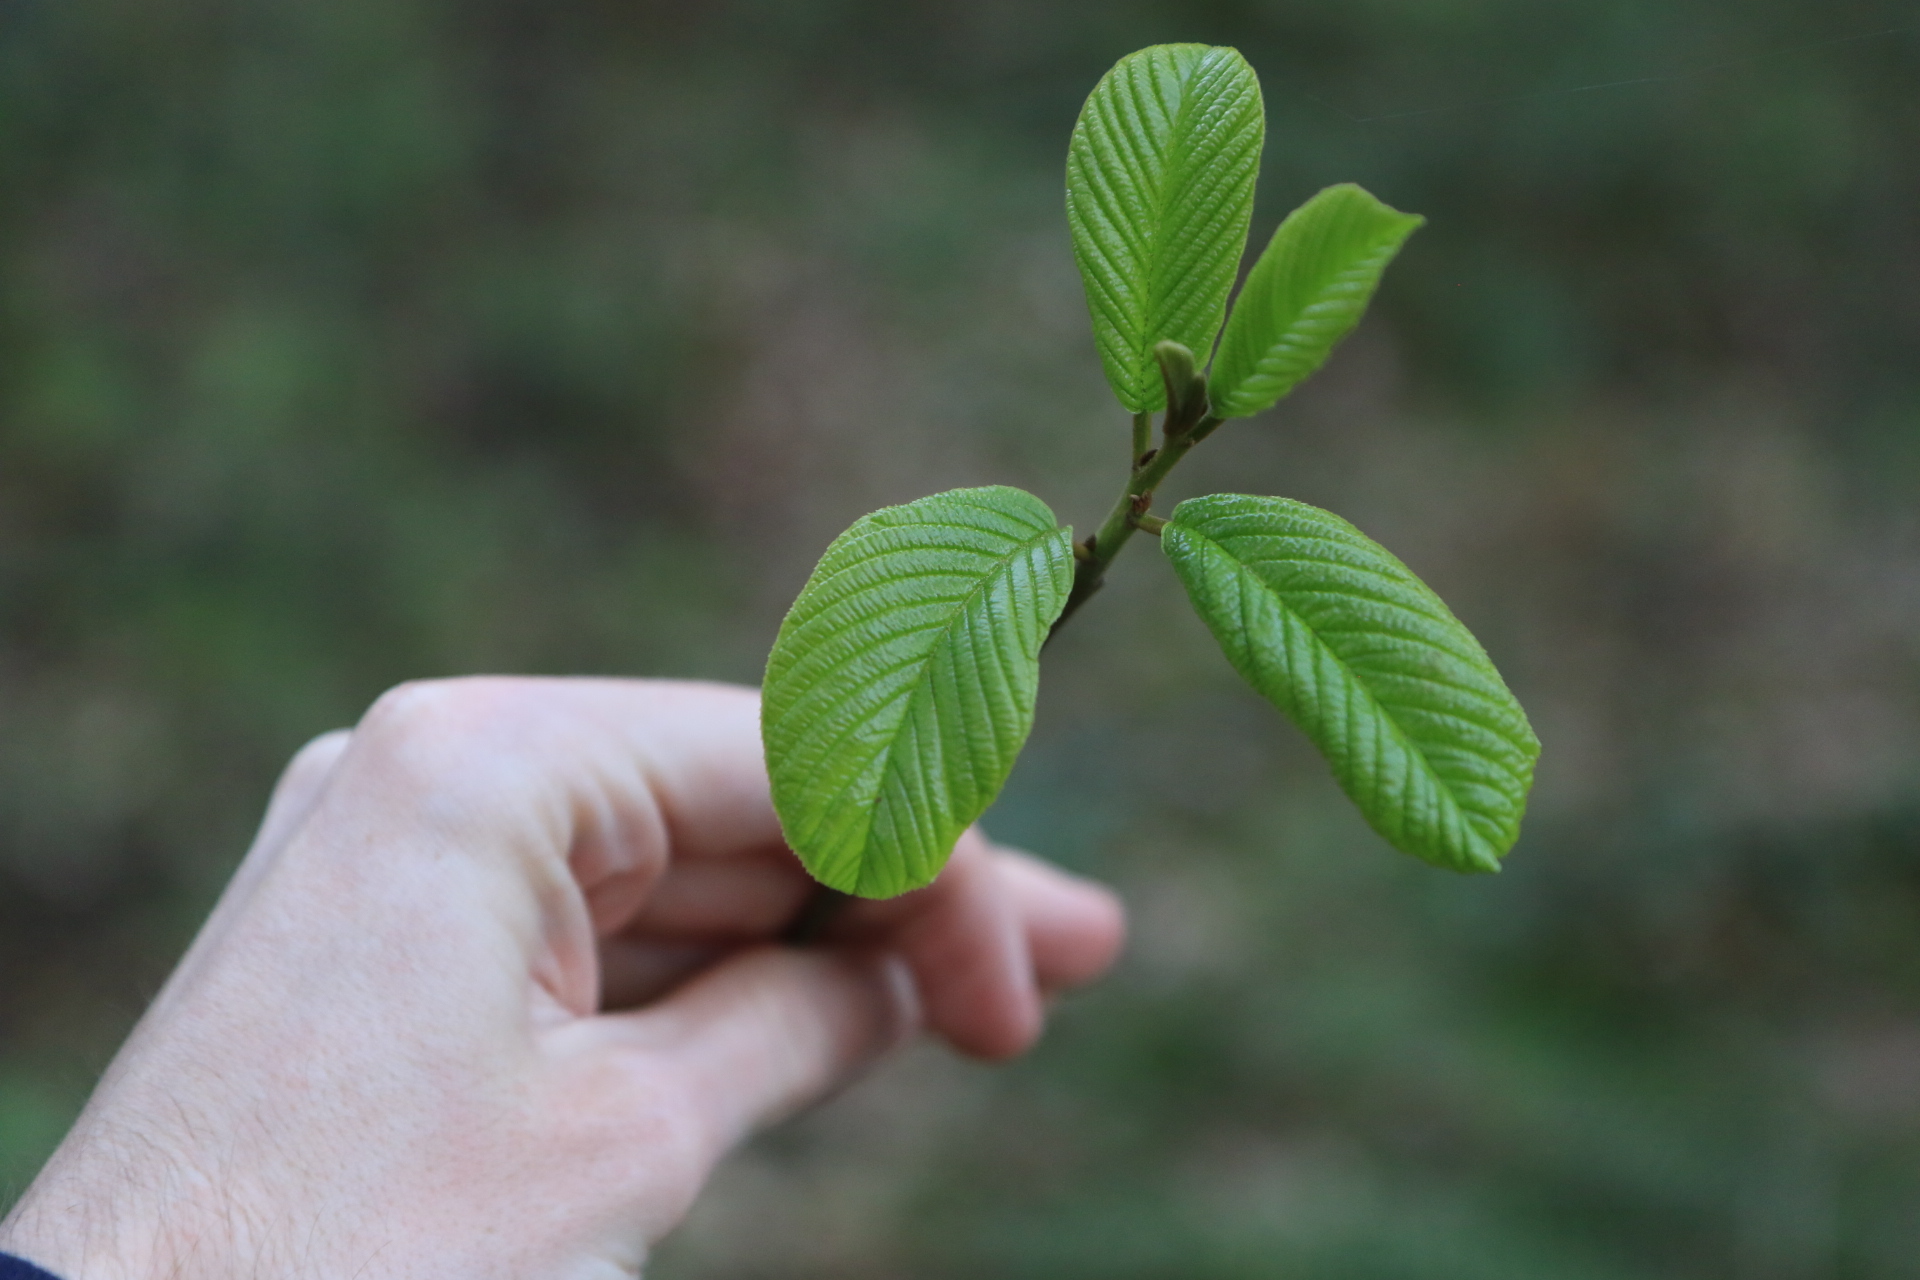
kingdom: Plantae
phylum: Tracheophyta
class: Magnoliopsida
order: Rosales
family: Rhamnaceae
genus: Frangula
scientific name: Frangula purshiana
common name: Cascara buckthorn
